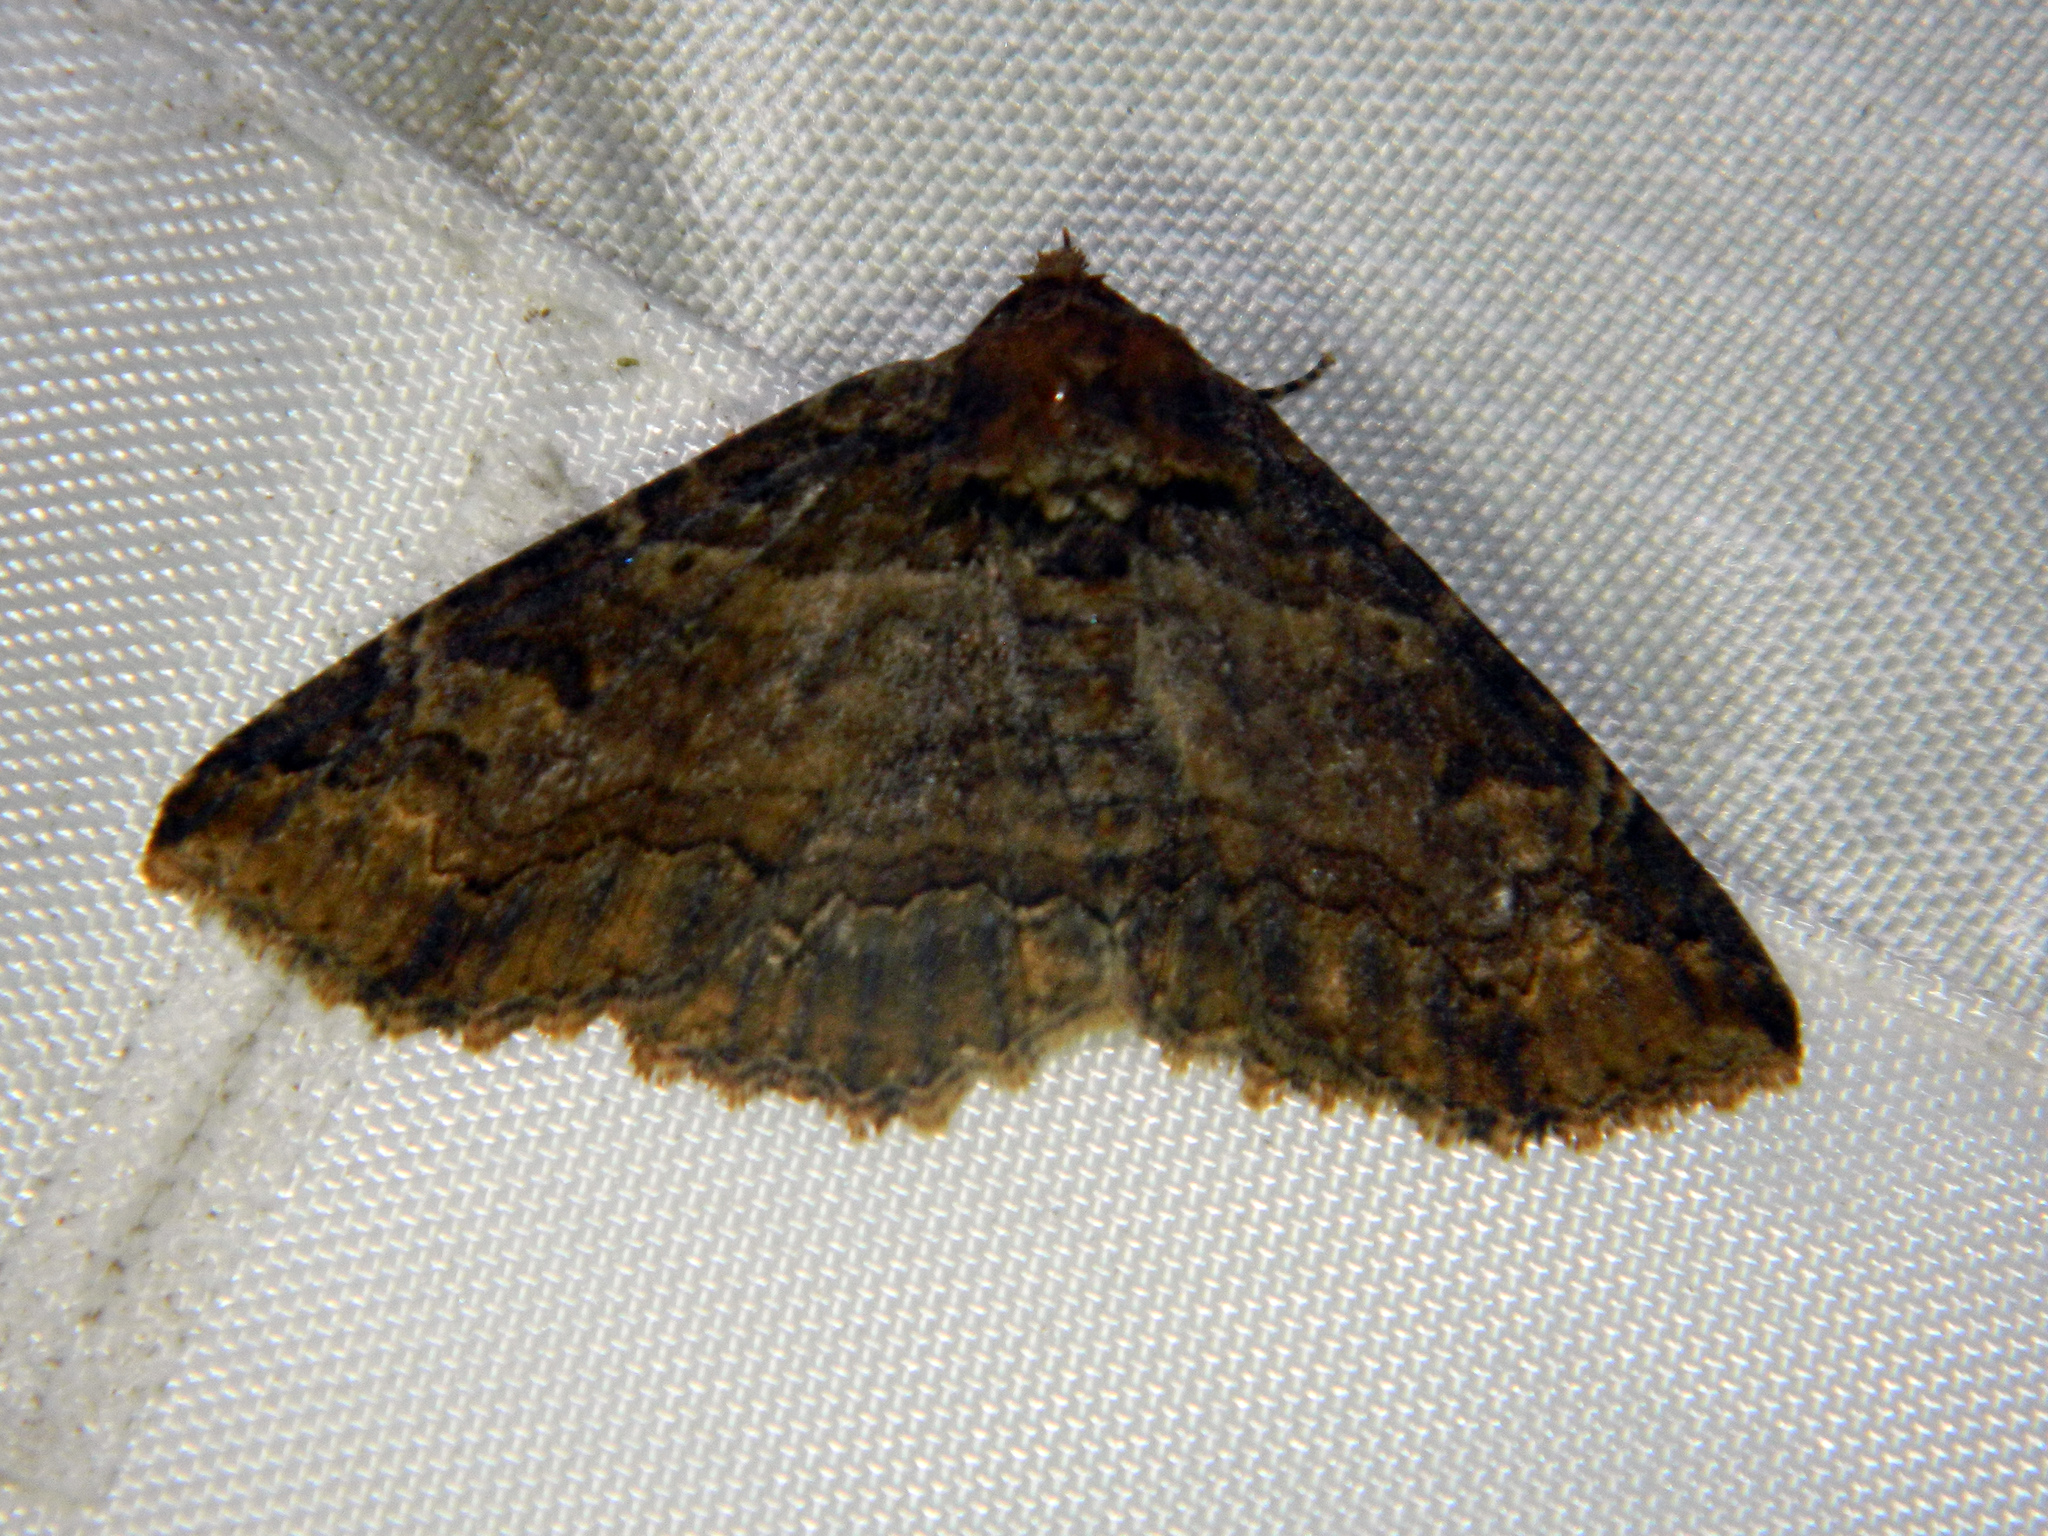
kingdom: Animalia
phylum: Arthropoda
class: Insecta
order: Lepidoptera
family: Erebidae
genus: Zale
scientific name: Zale minerea
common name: Colorful zale moth
